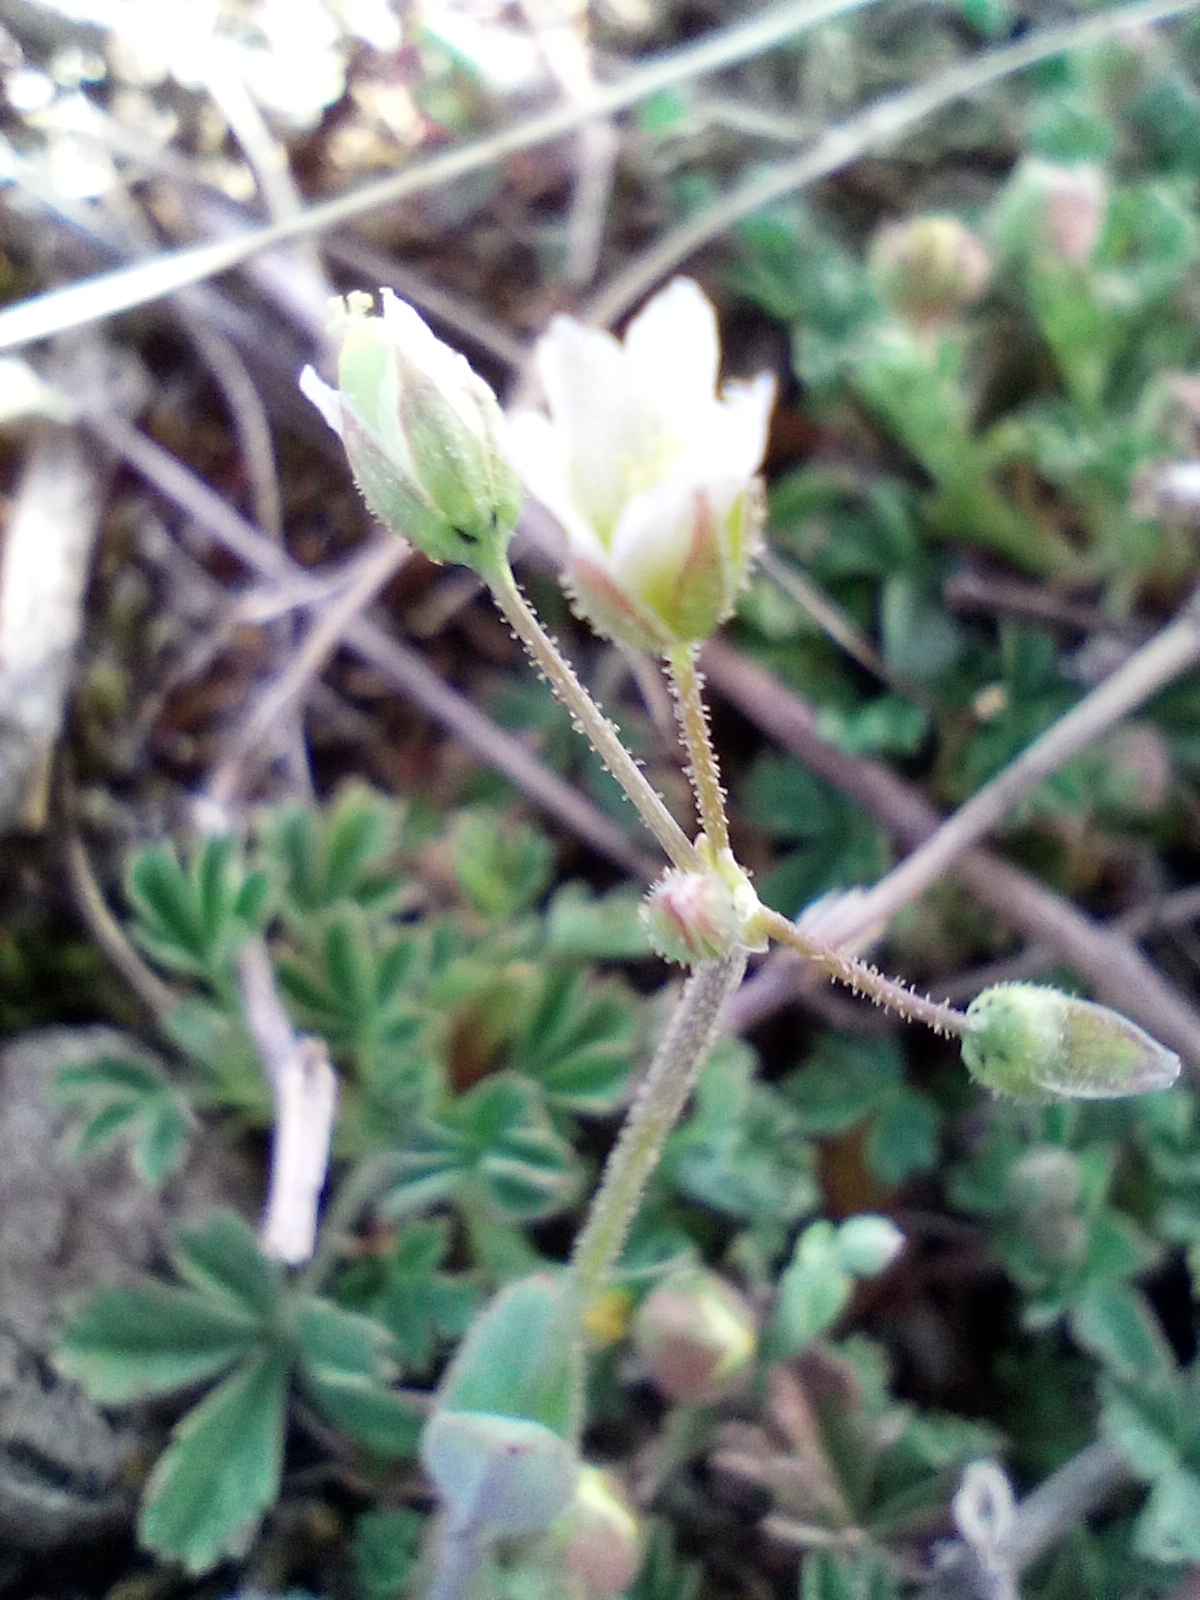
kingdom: Plantae
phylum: Tracheophyta
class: Magnoliopsida
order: Caryophyllales
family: Caryophyllaceae
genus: Holosteum
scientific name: Holosteum umbellatum
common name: Jagged chickweed
